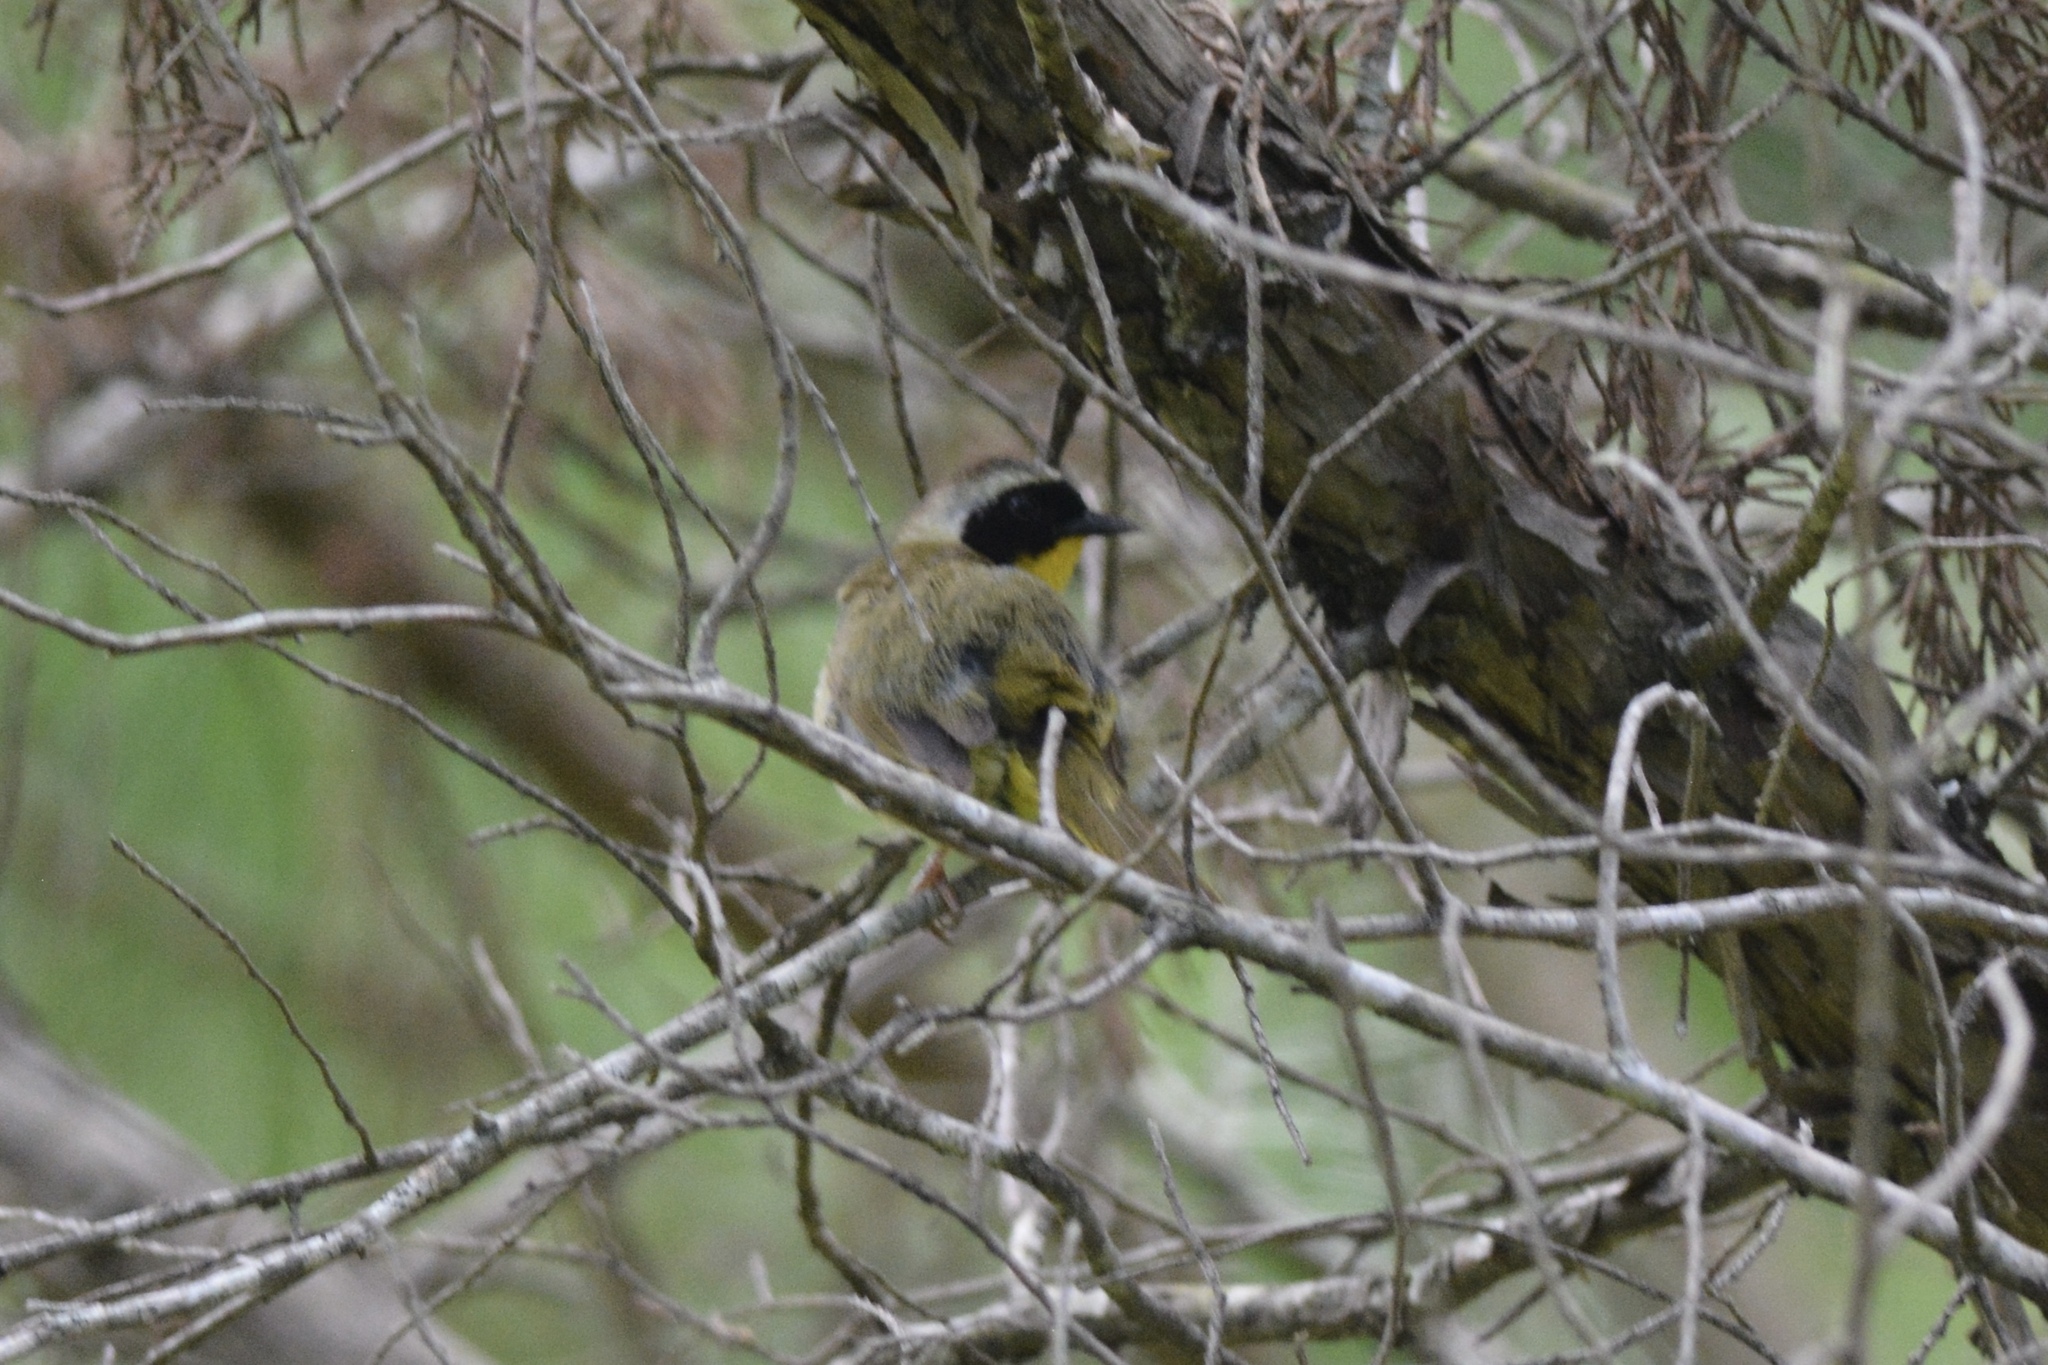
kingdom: Animalia
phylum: Chordata
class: Aves
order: Passeriformes
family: Parulidae
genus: Geothlypis
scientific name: Geothlypis trichas
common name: Common yellowthroat
